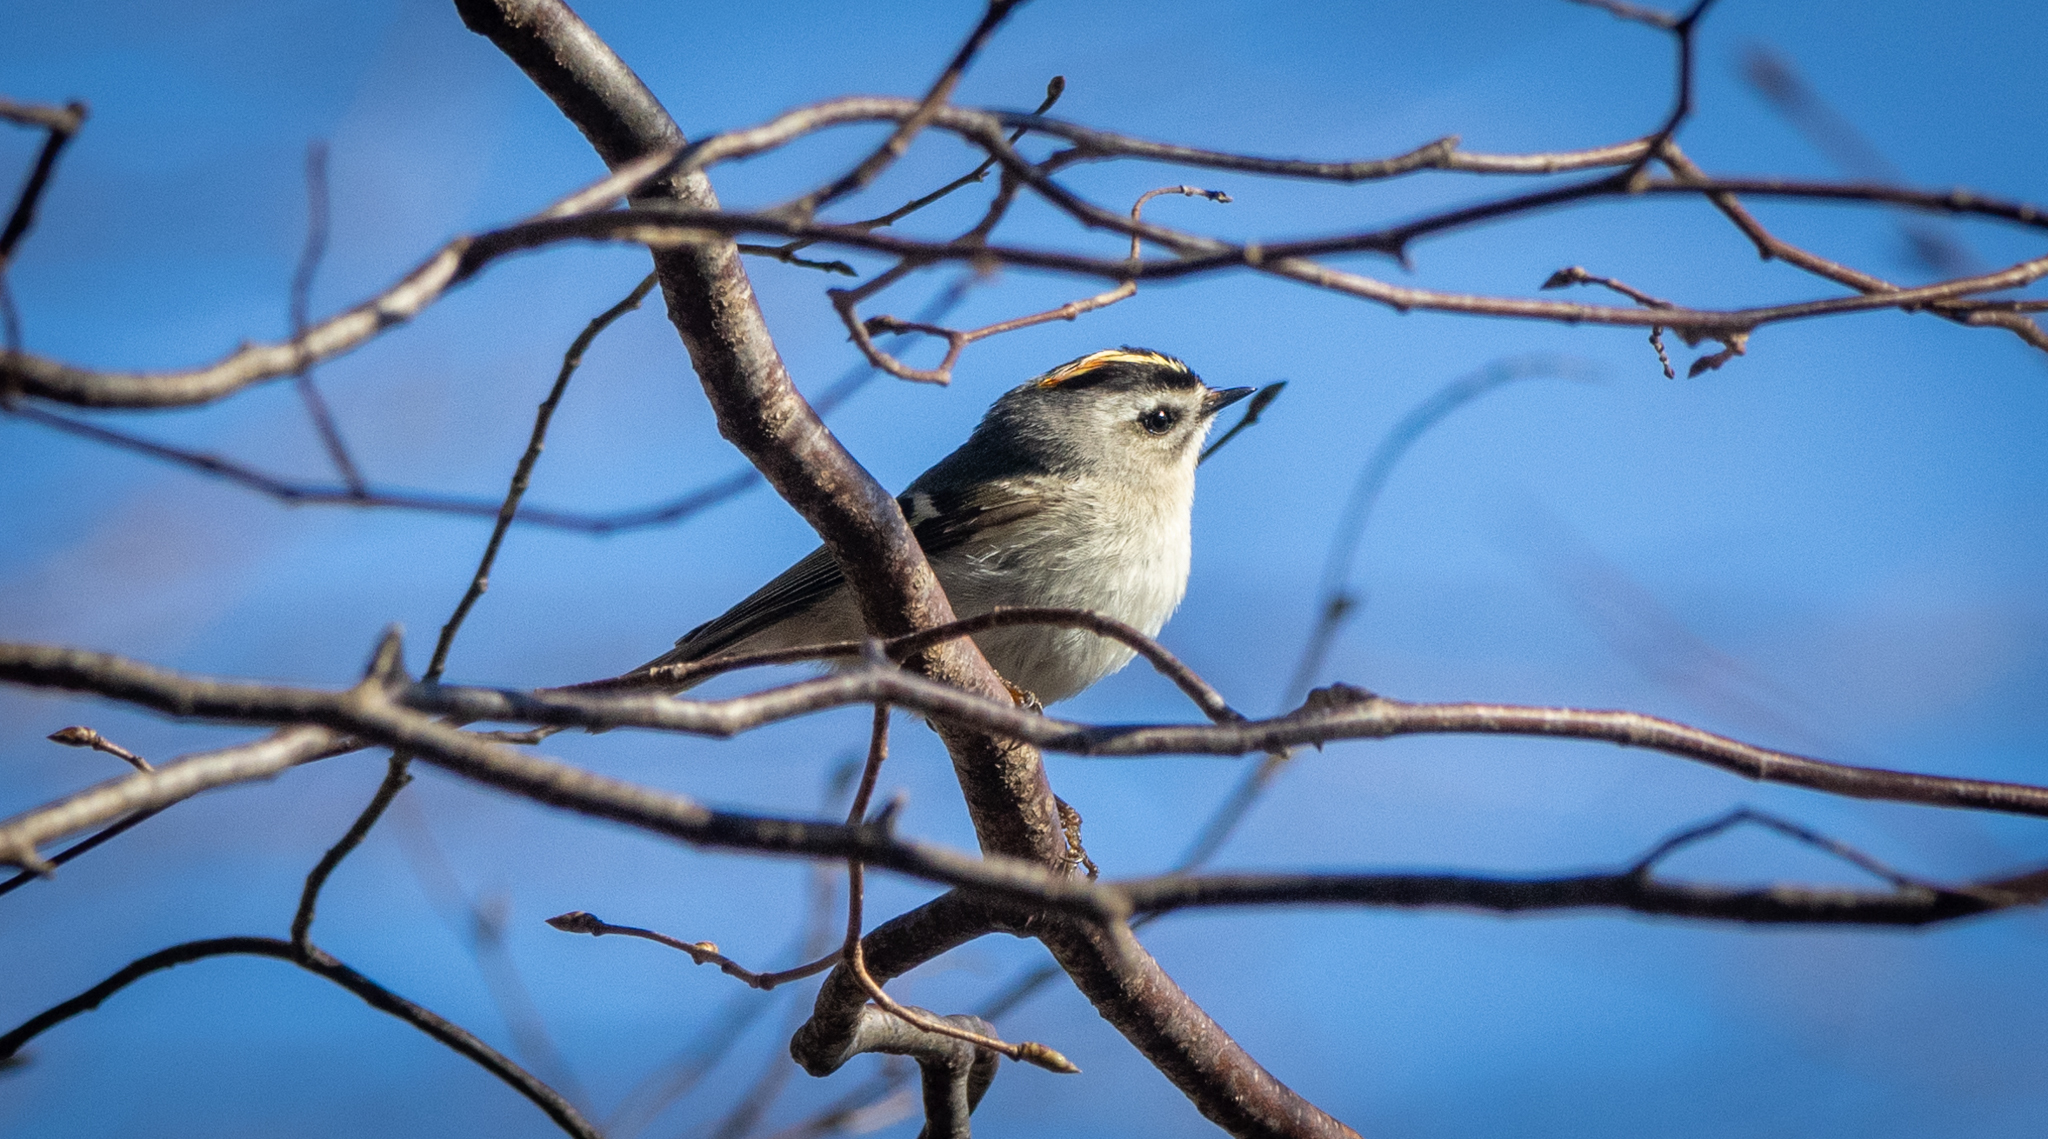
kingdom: Animalia
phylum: Chordata
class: Aves
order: Passeriformes
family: Regulidae
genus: Regulus
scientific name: Regulus satrapa
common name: Golden-crowned kinglet
